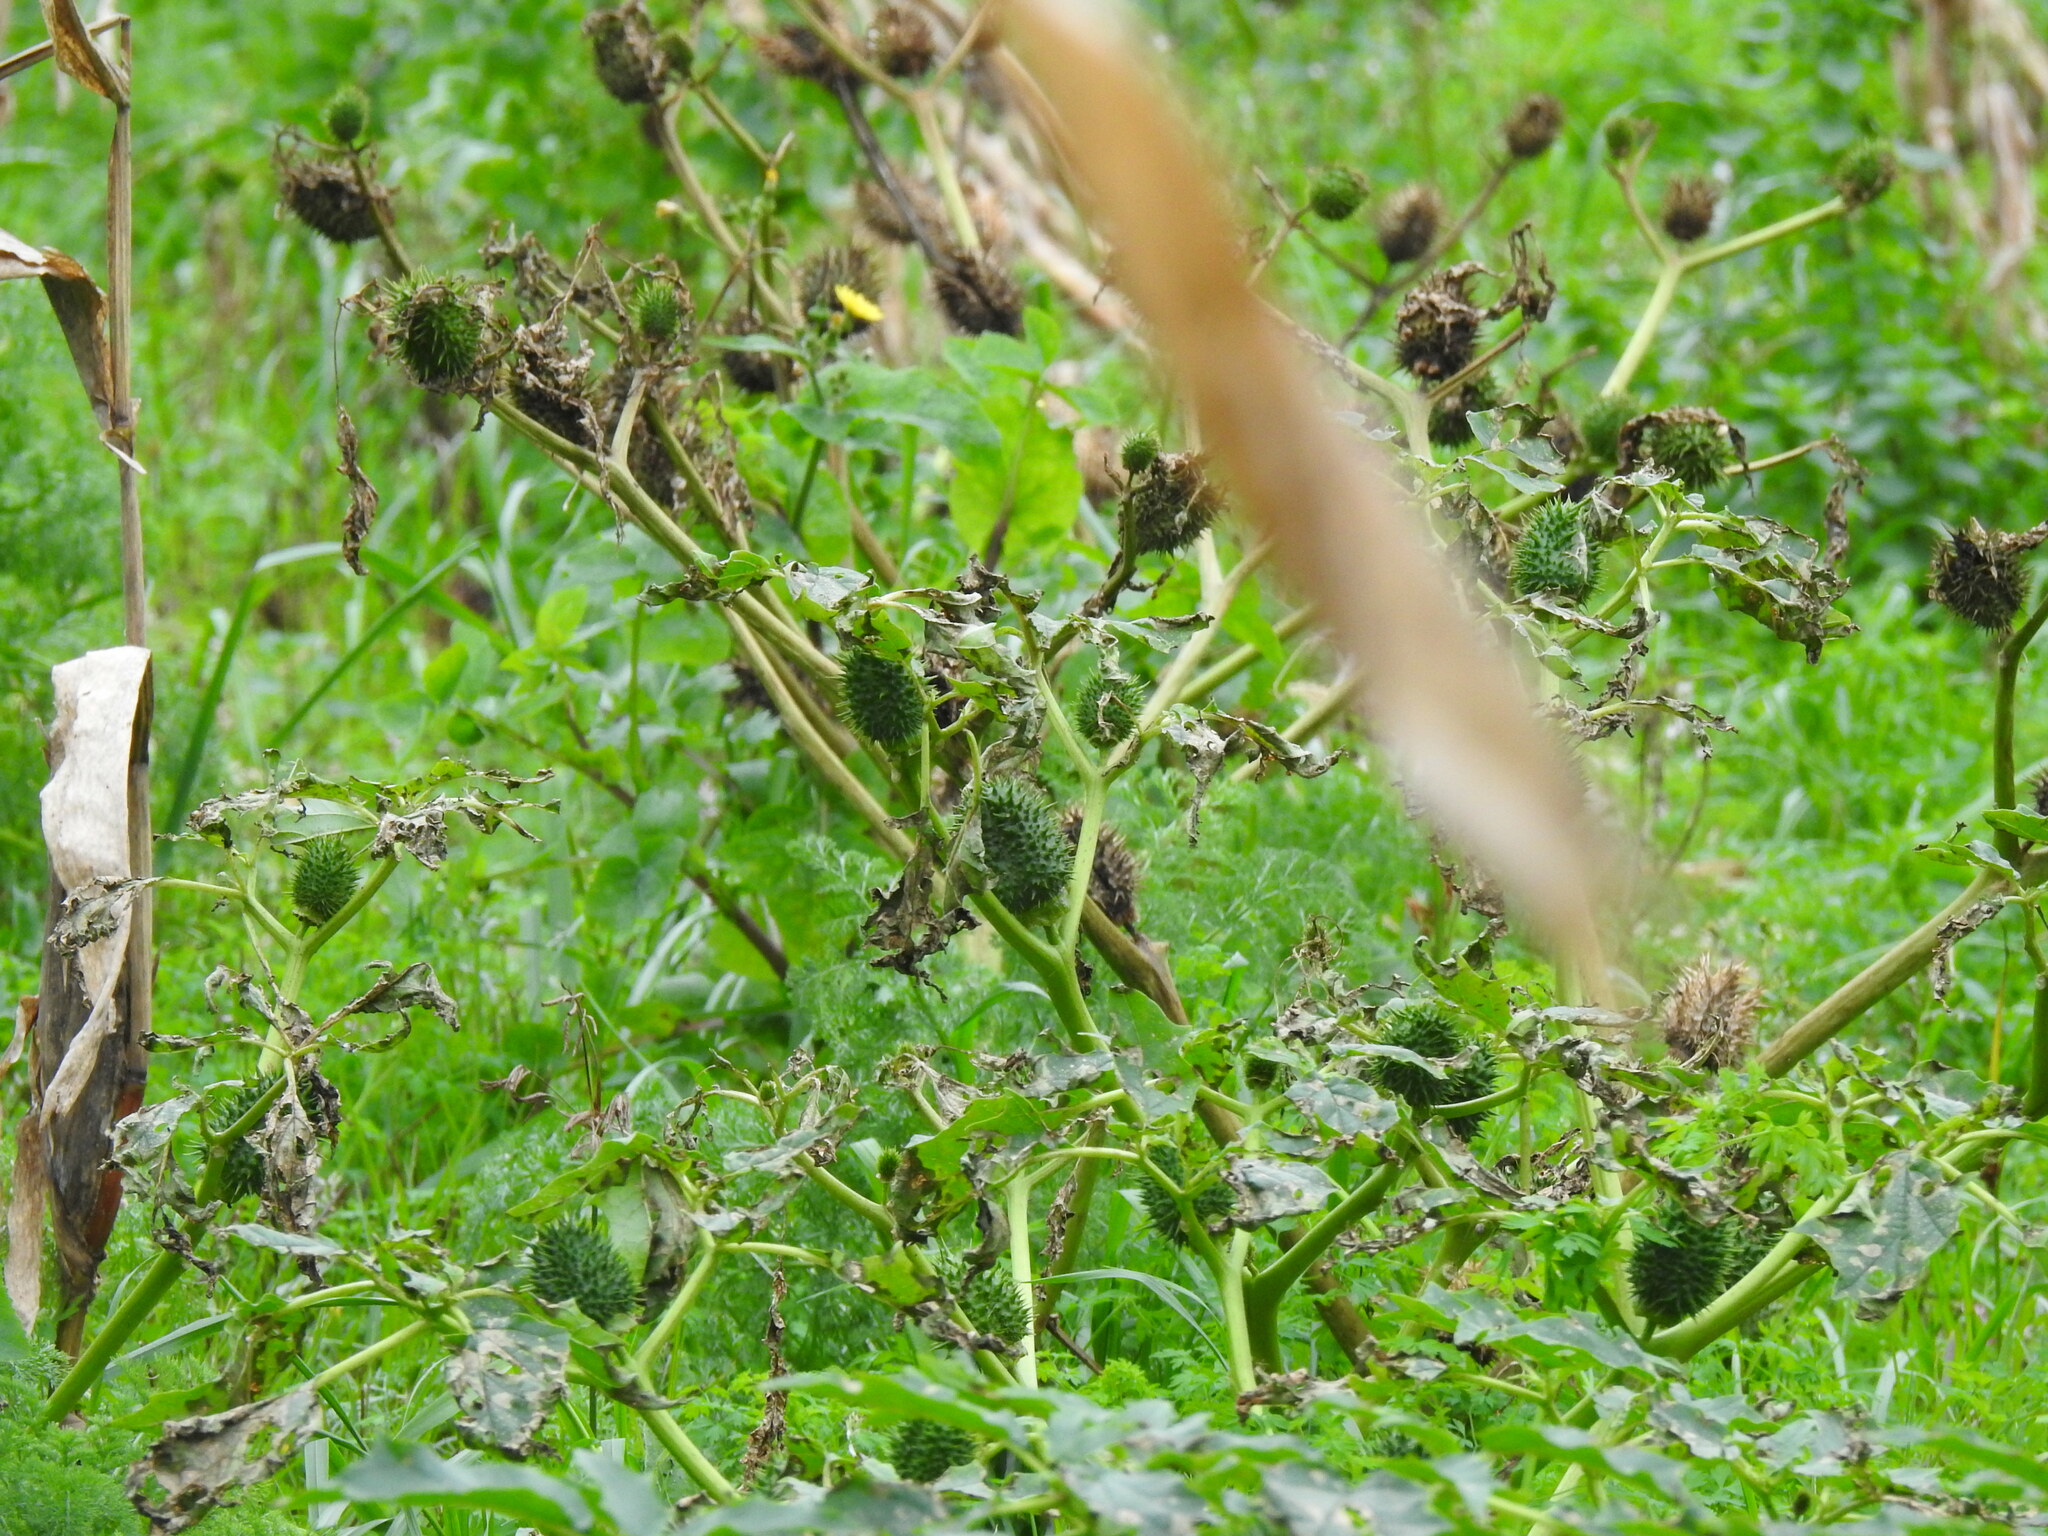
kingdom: Plantae
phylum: Tracheophyta
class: Magnoliopsida
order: Solanales
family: Solanaceae
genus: Datura
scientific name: Datura stramonium
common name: Thorn-apple
